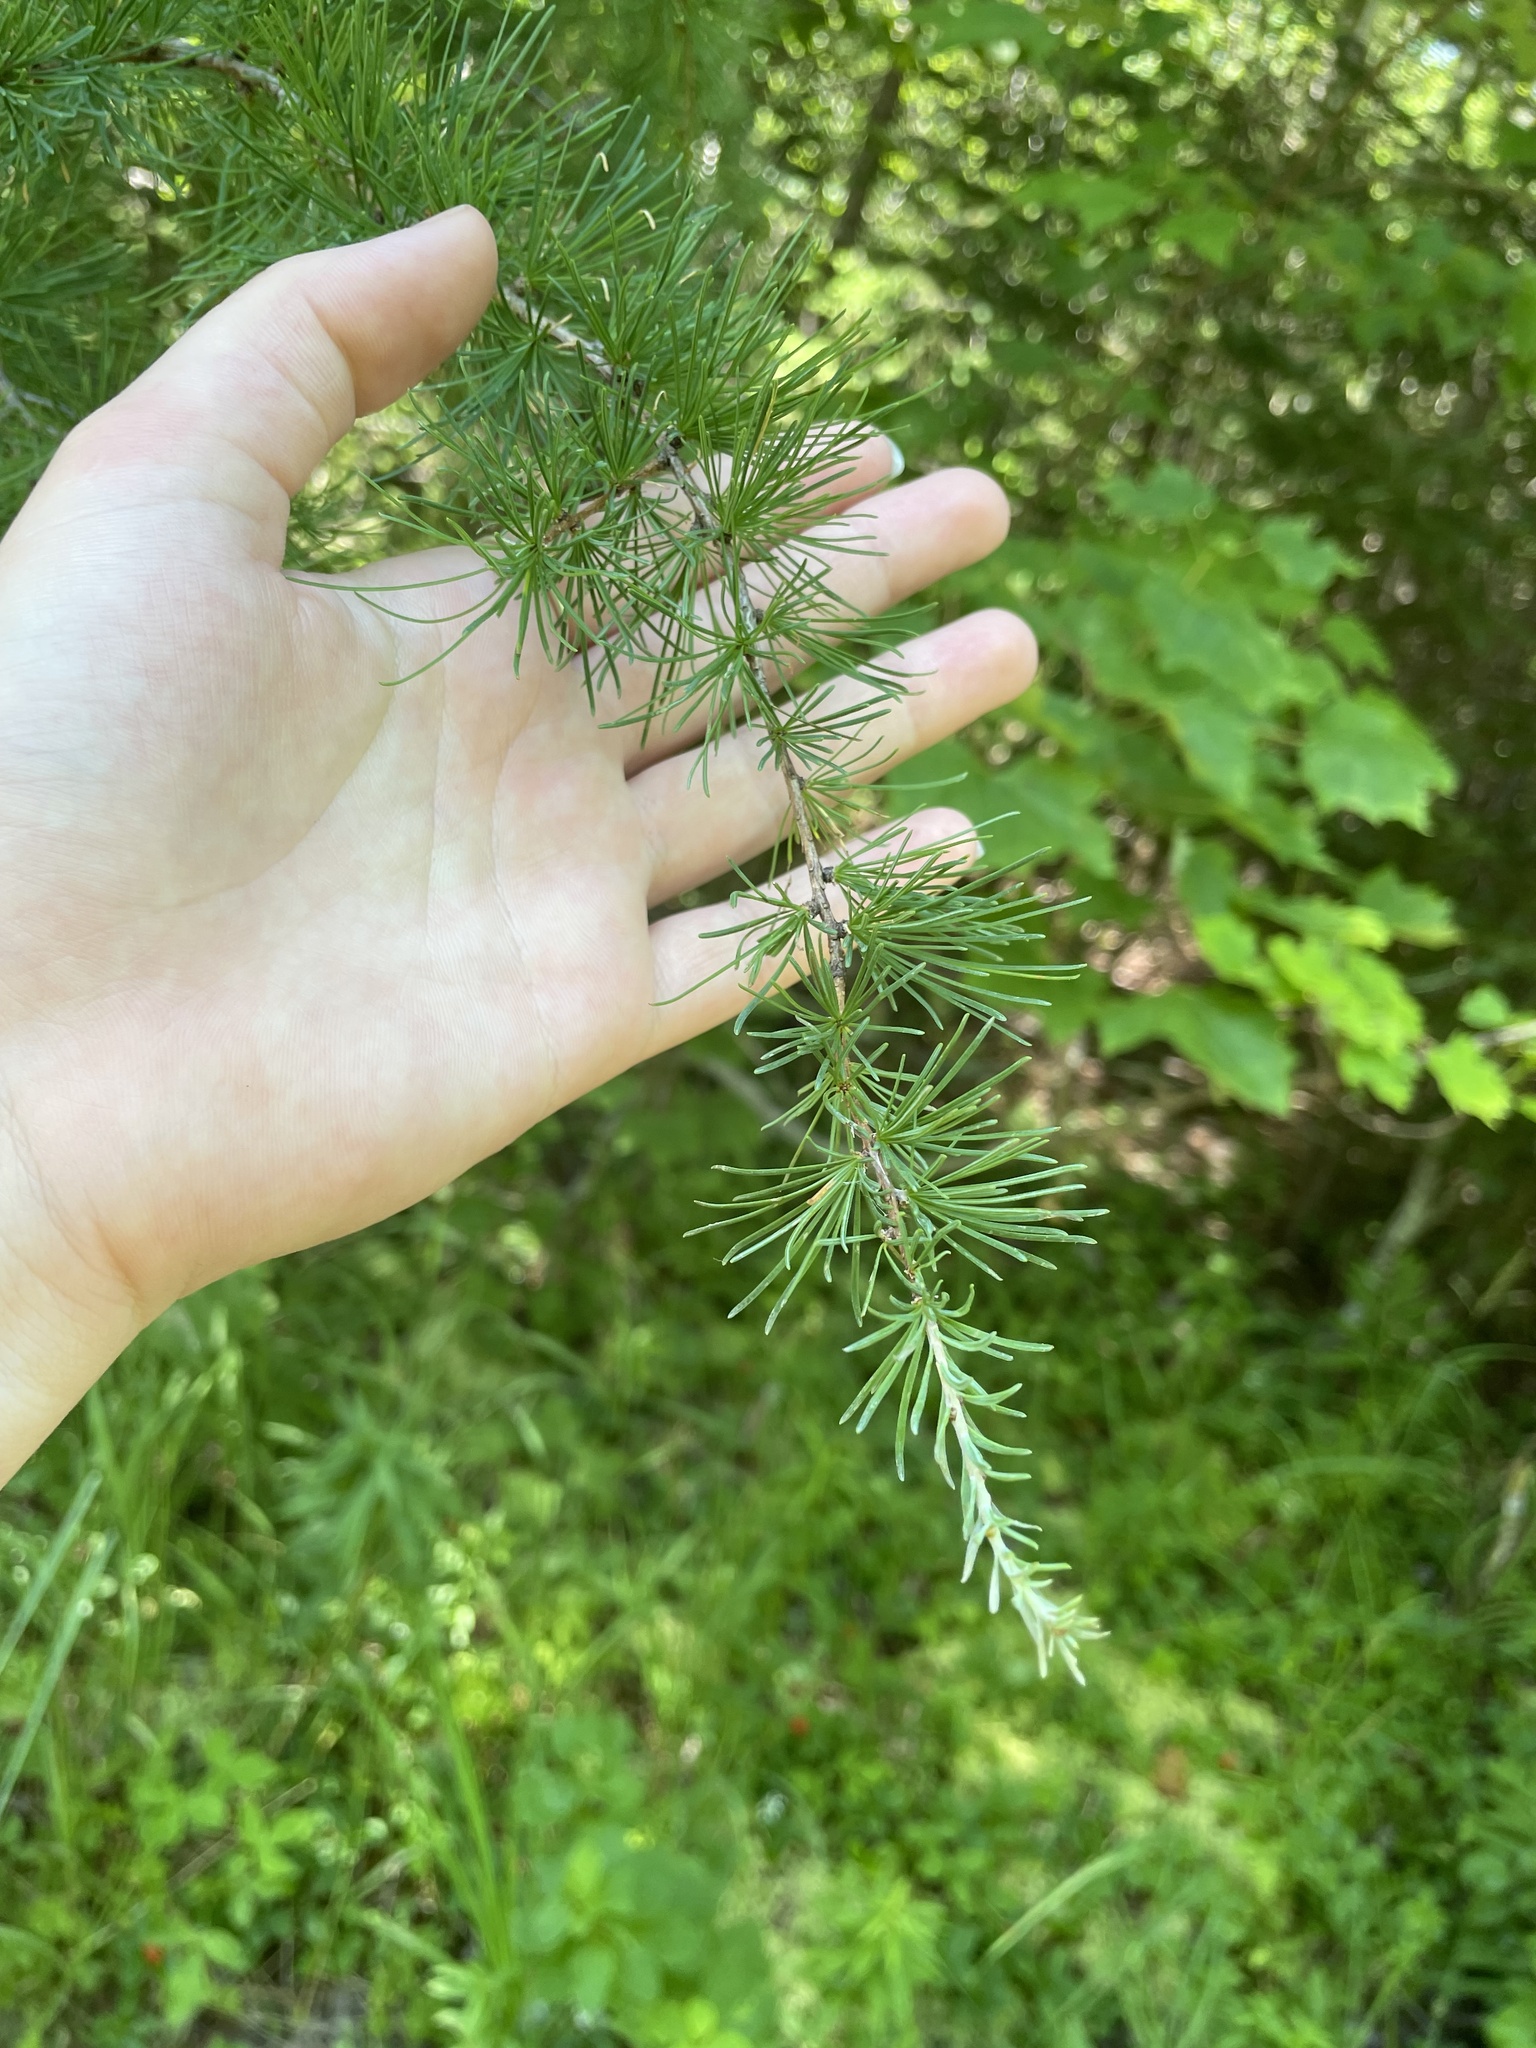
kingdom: Plantae
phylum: Tracheophyta
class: Pinopsida
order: Pinales
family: Pinaceae
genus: Larix
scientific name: Larix laricina
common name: American larch
